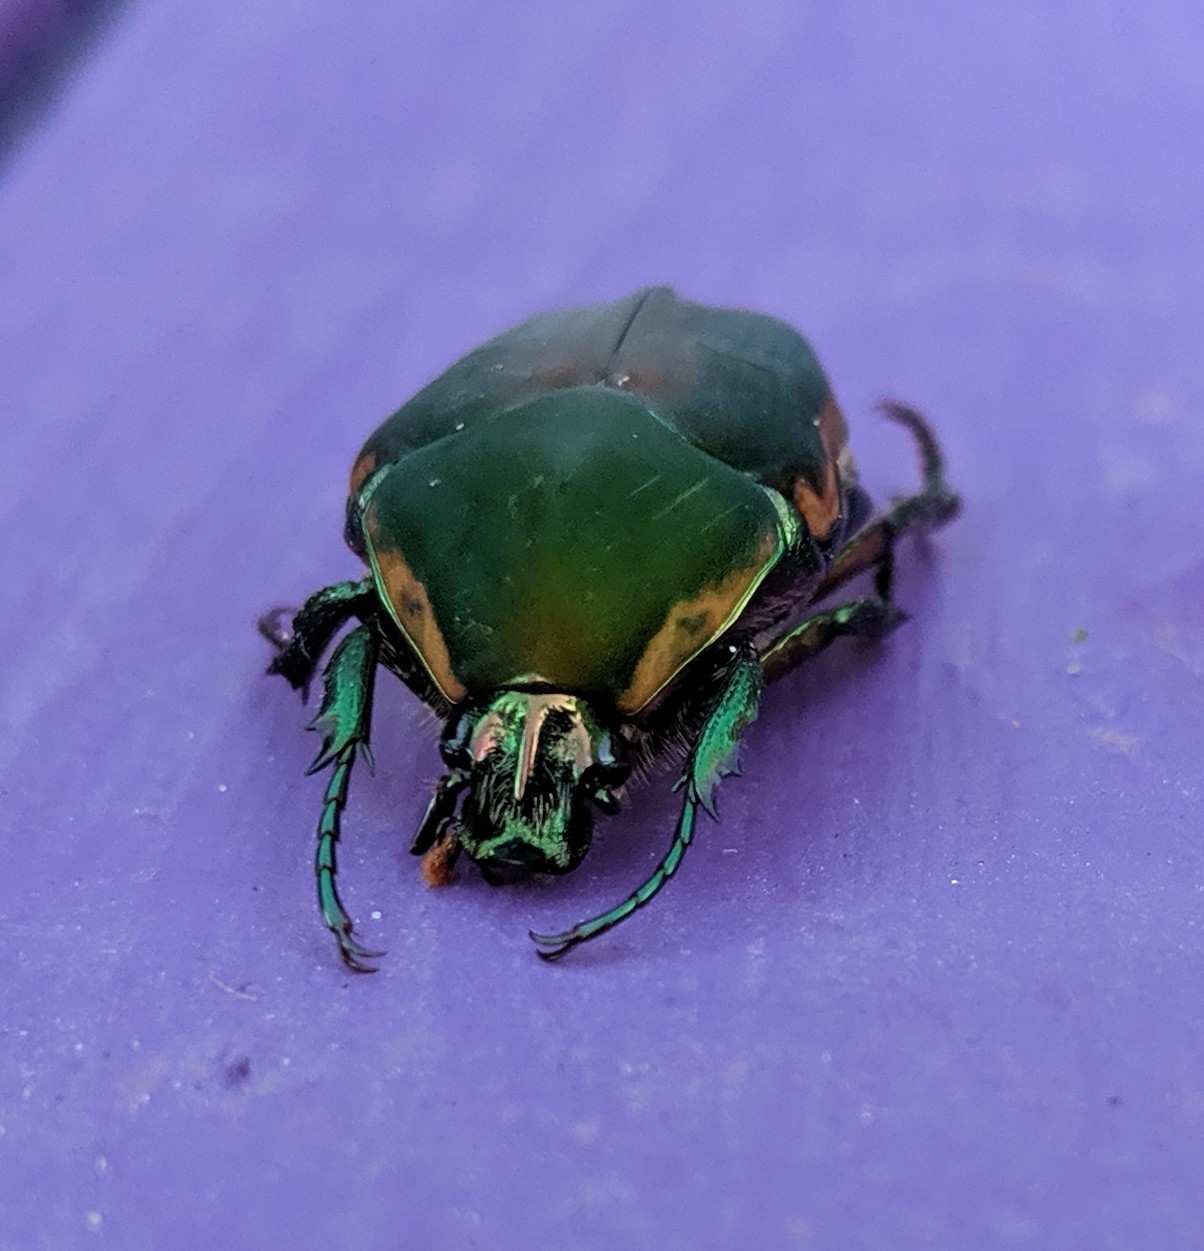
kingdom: Animalia
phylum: Arthropoda
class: Insecta
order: Coleoptera
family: Scarabaeidae
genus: Cotinis
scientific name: Cotinis nitida
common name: Common green june beetle
